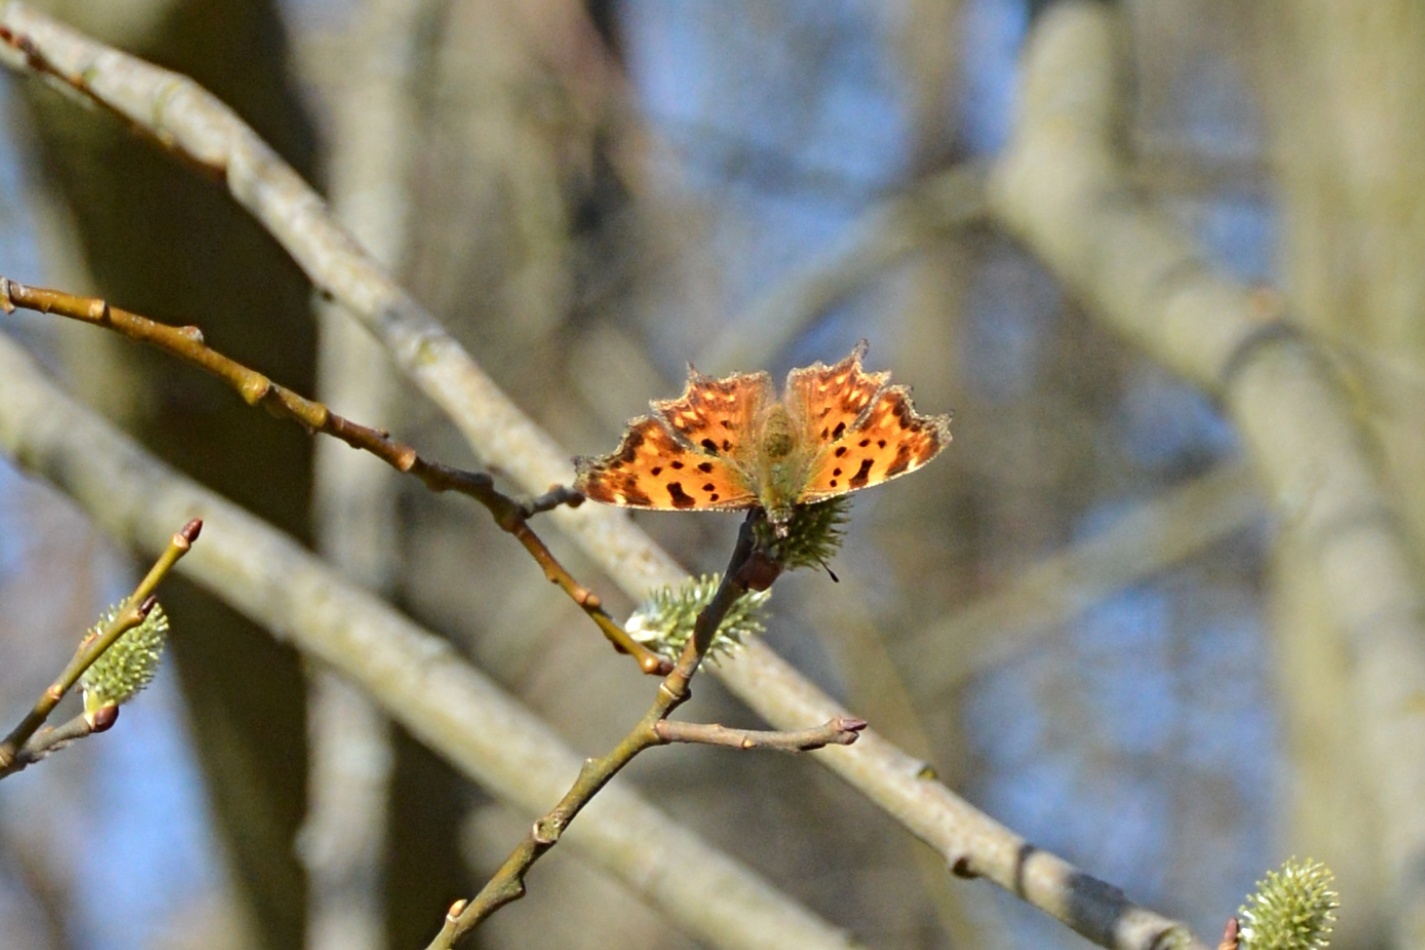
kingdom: Animalia
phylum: Arthropoda
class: Insecta
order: Lepidoptera
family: Nymphalidae
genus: Polygonia
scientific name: Polygonia c-album
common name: Comma
